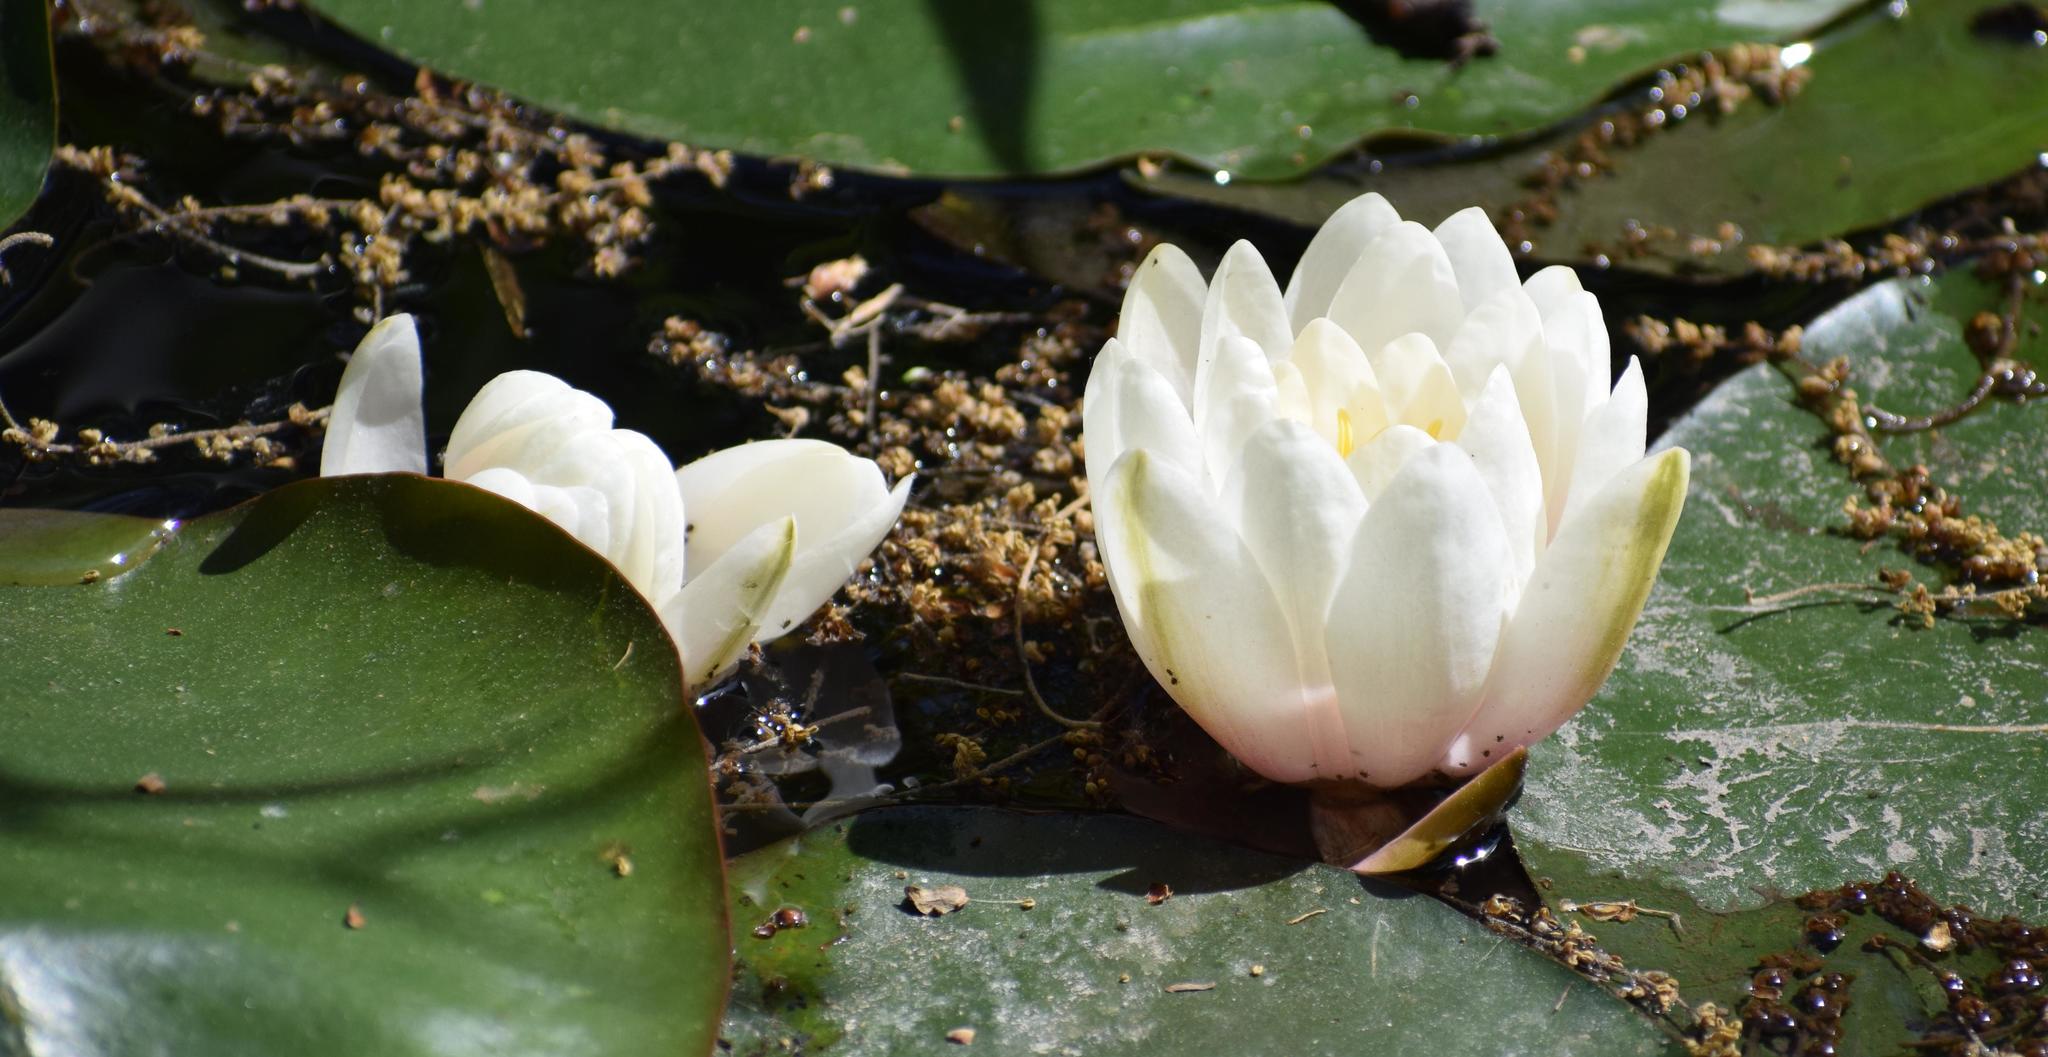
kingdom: Plantae
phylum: Tracheophyta
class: Magnoliopsida
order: Nymphaeales
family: Nymphaeaceae
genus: Nymphaea
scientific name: Nymphaea alba
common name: White water-lily
